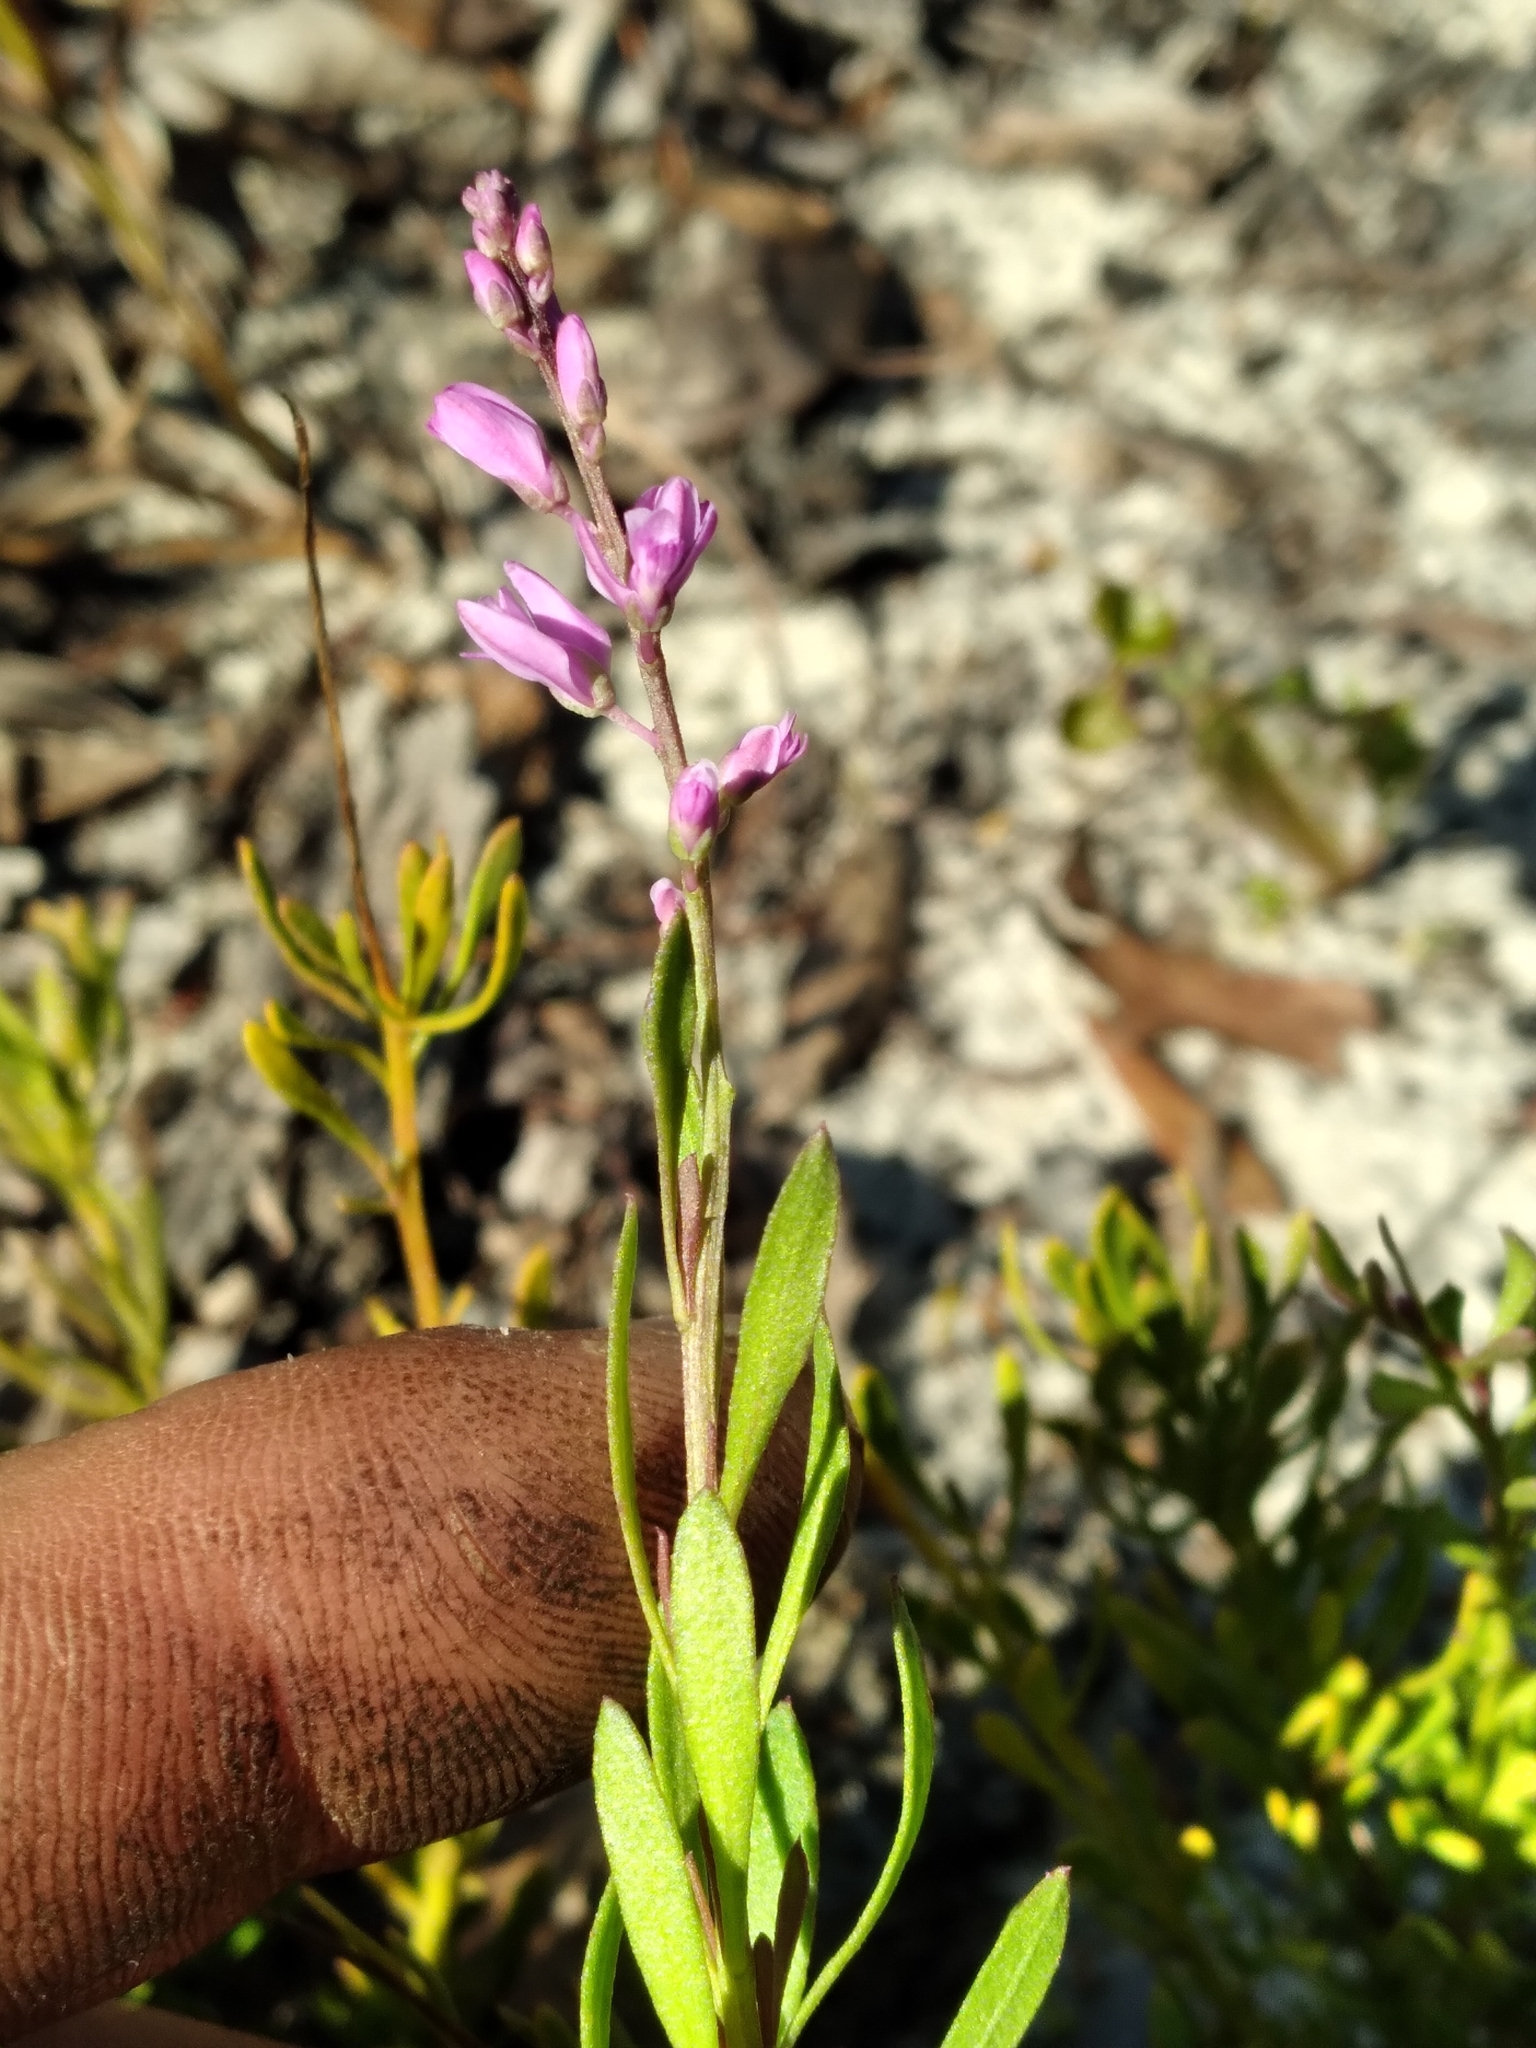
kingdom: Plantae
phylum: Tracheophyta
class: Magnoliopsida
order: Fabales
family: Polygalaceae
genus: Polygala
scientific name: Polygala lewtonii
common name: Lewton's polygala
